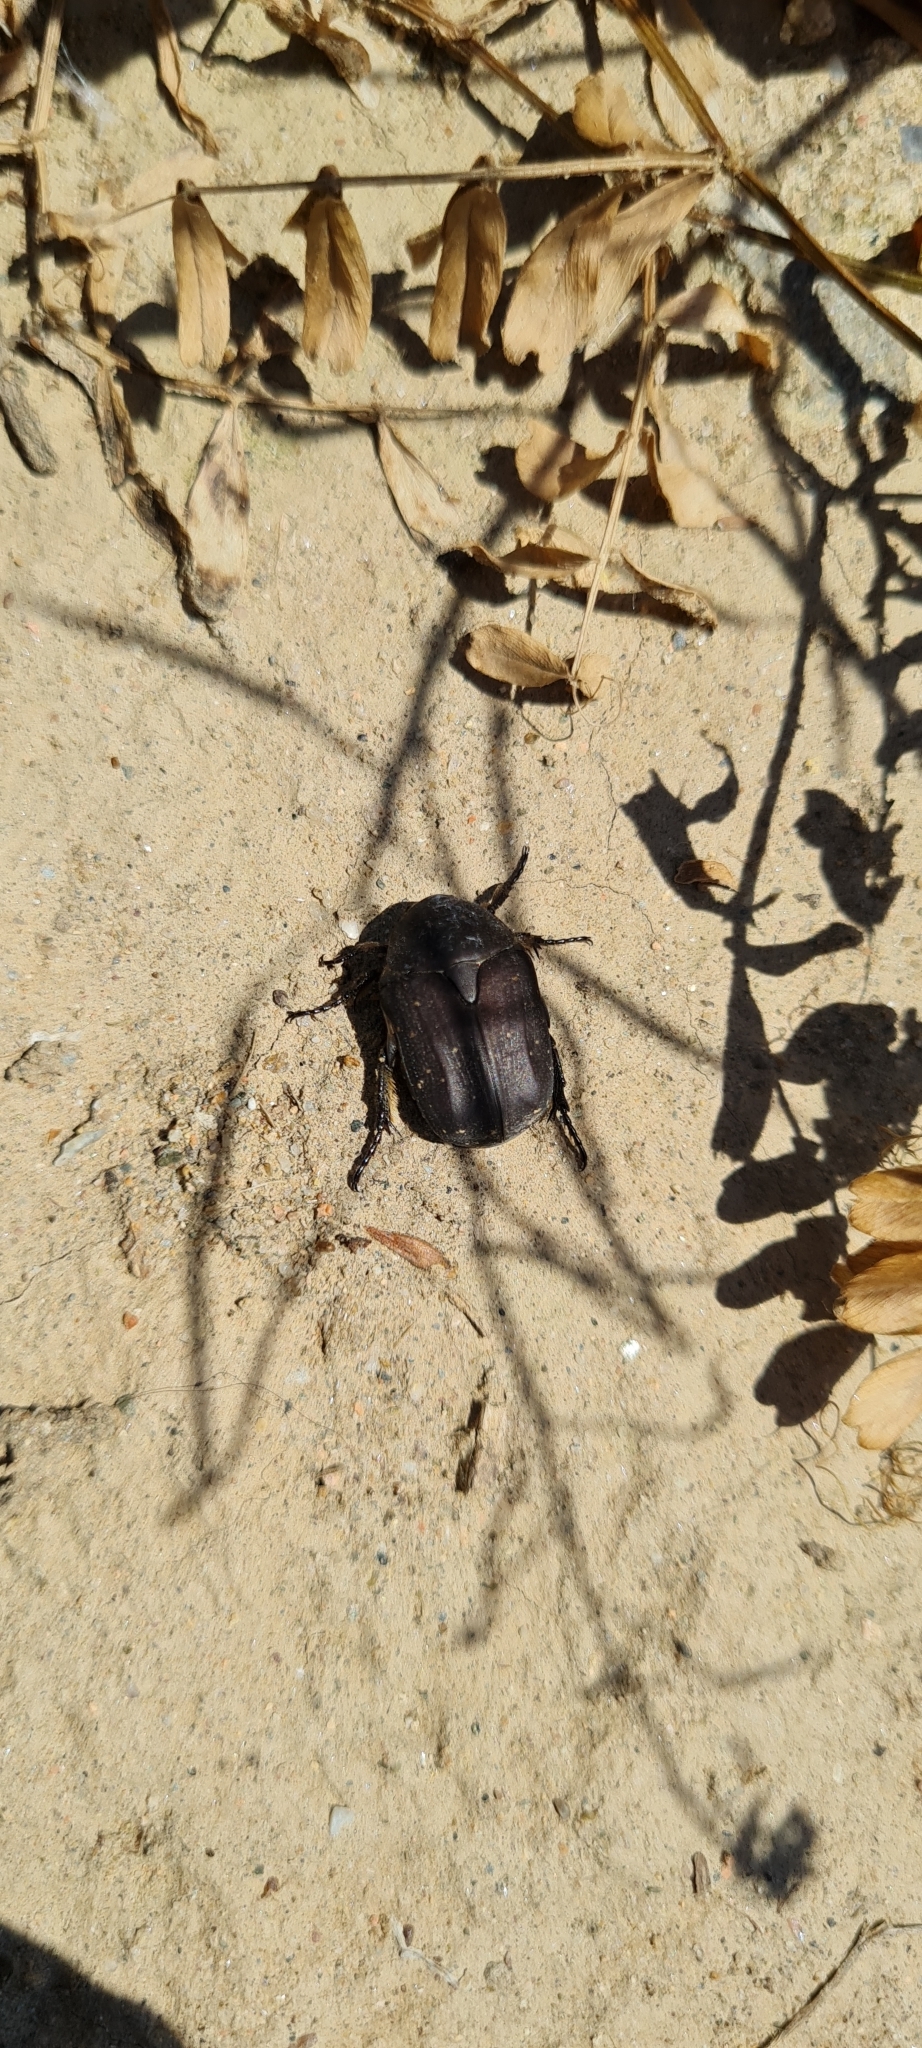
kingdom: Animalia
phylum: Arthropoda
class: Insecta
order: Coleoptera
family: Scarabaeidae
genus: Protaetia
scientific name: Protaetia morio
